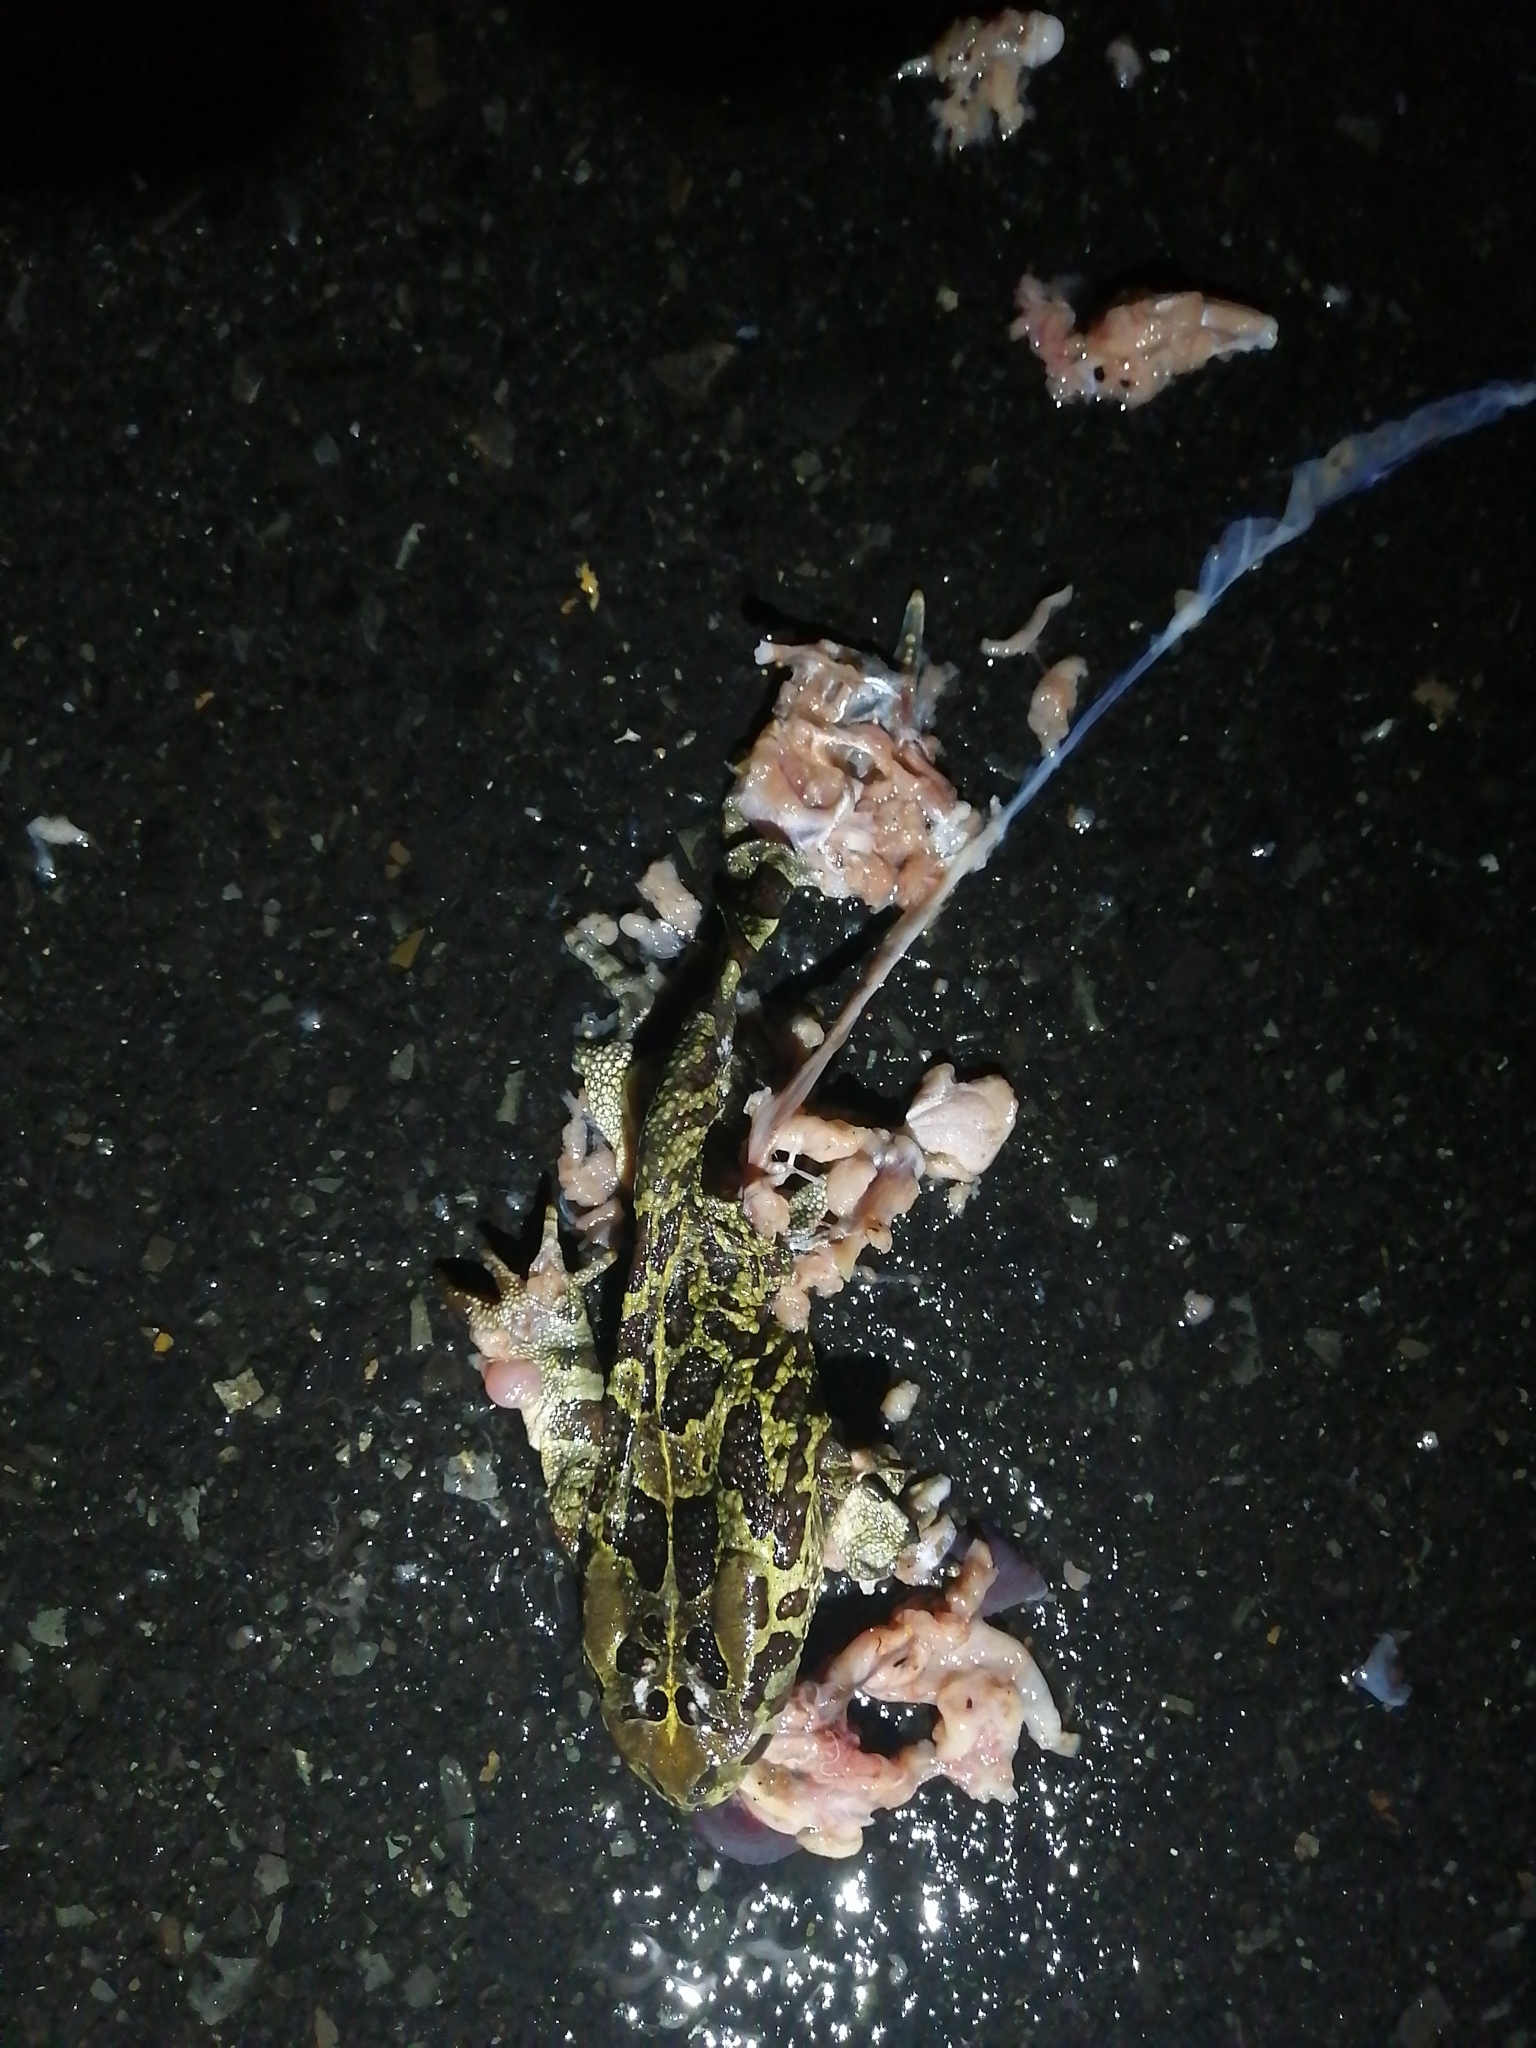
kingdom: Animalia
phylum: Chordata
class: Amphibia
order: Anura
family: Bufonidae
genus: Sclerophrys
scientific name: Sclerophrys pantherina
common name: Panther toad
